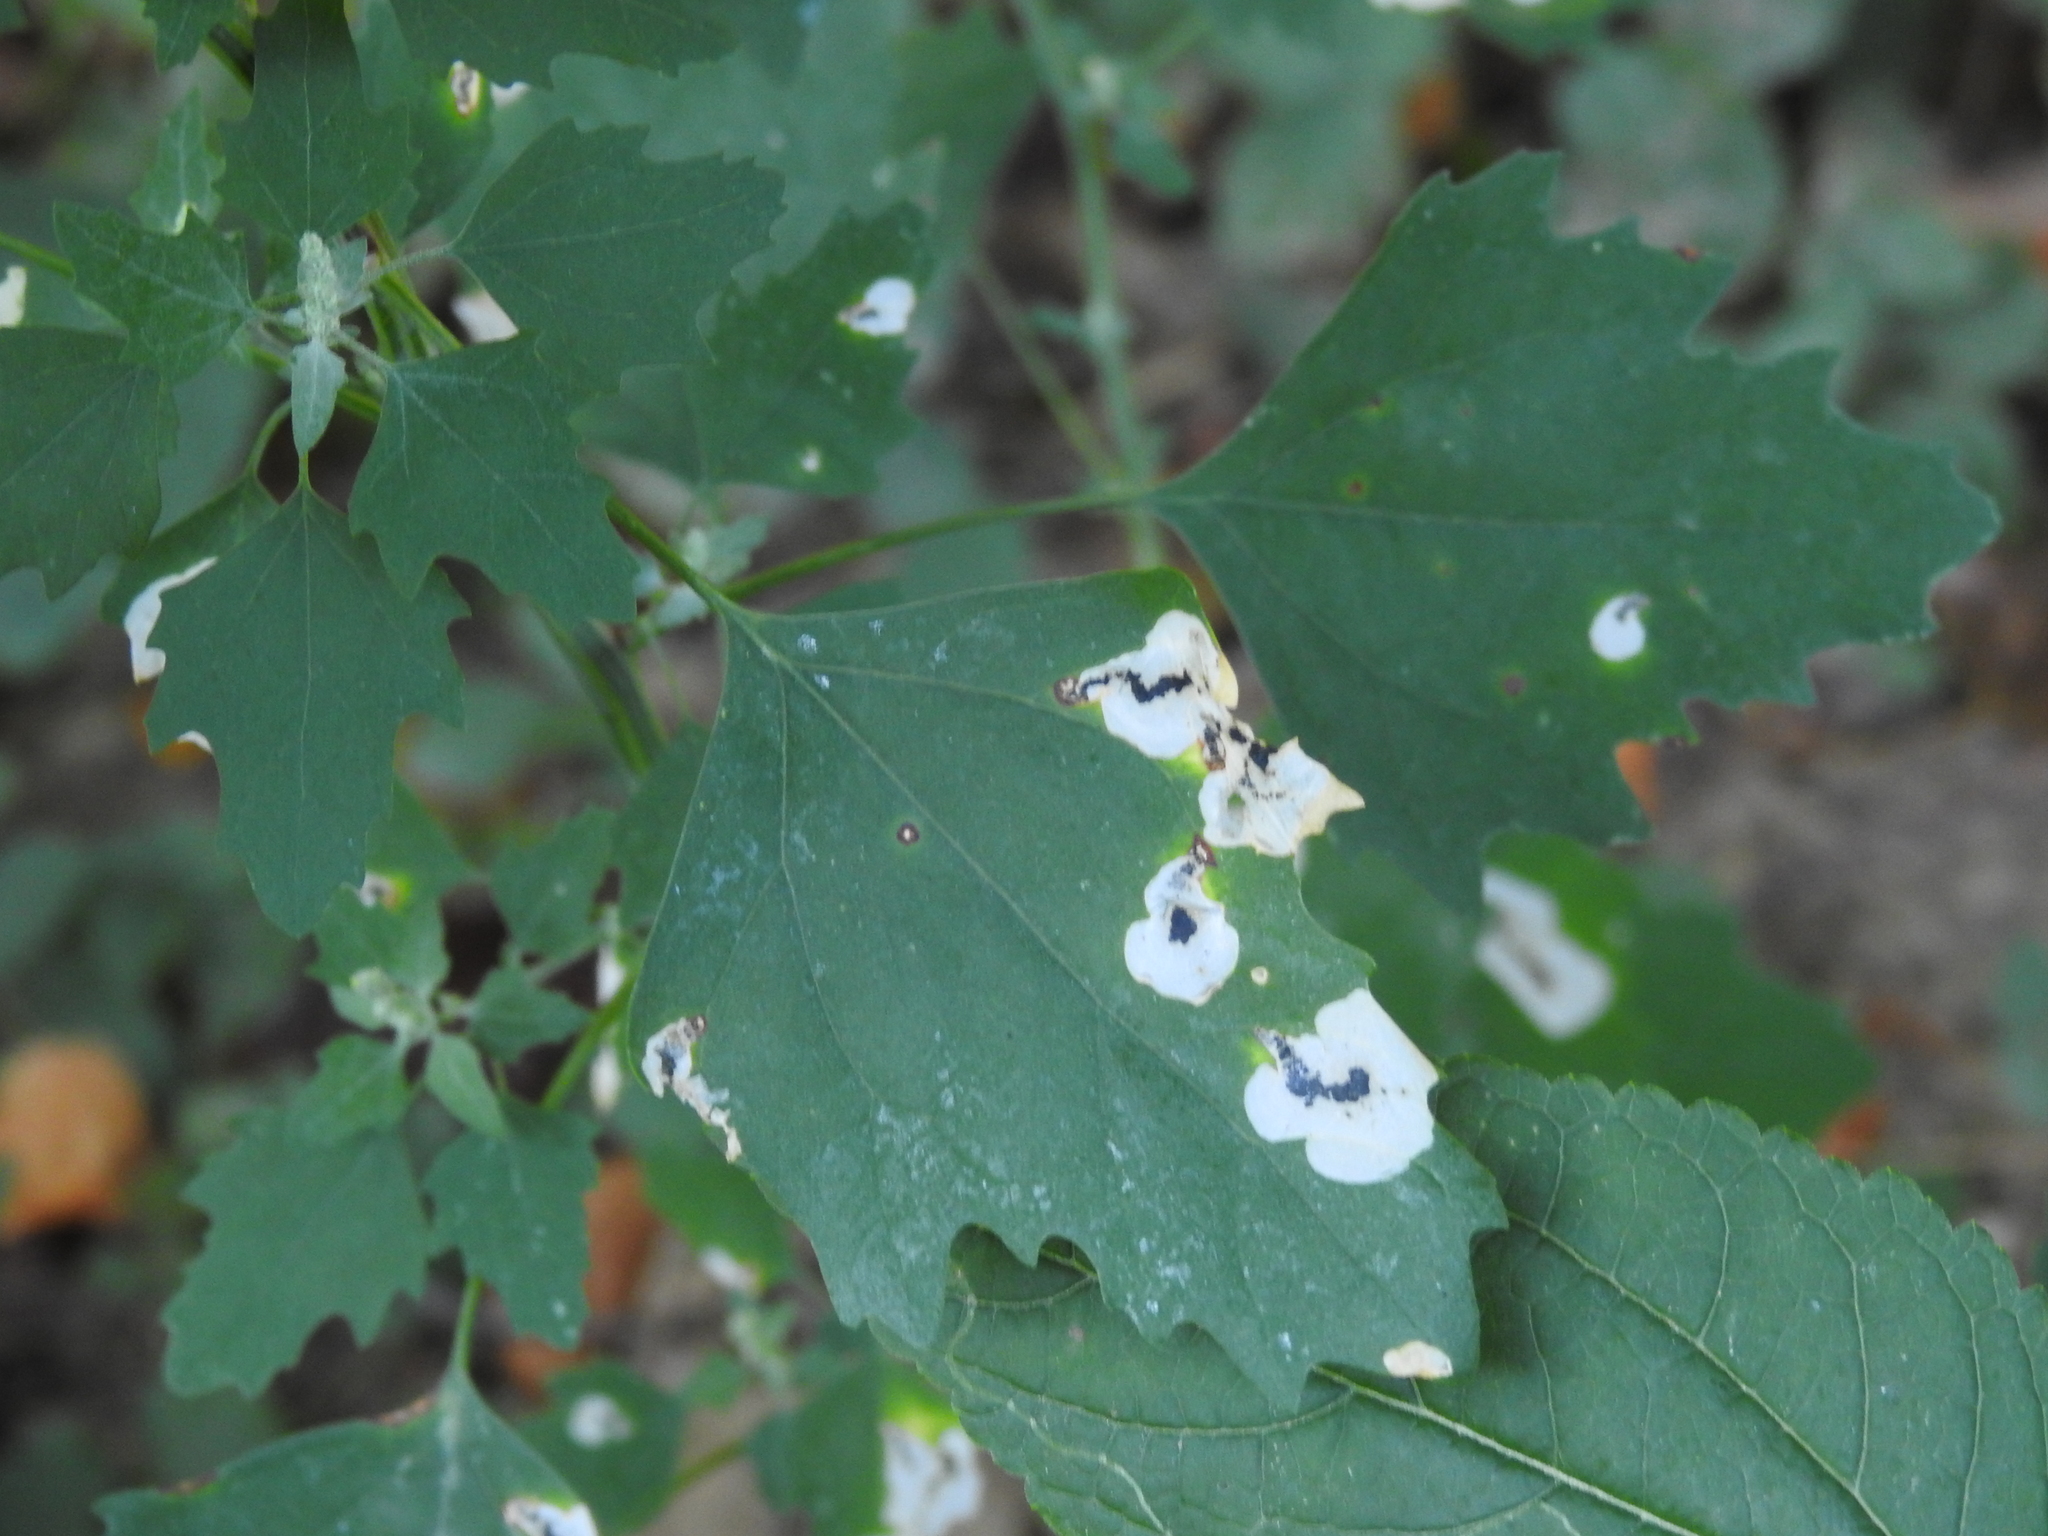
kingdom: Animalia
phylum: Arthropoda
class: Insecta
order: Lepidoptera
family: Gelechiidae
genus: Chrysoesthia
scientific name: Chrysoesthia sexguttella
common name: Moth
